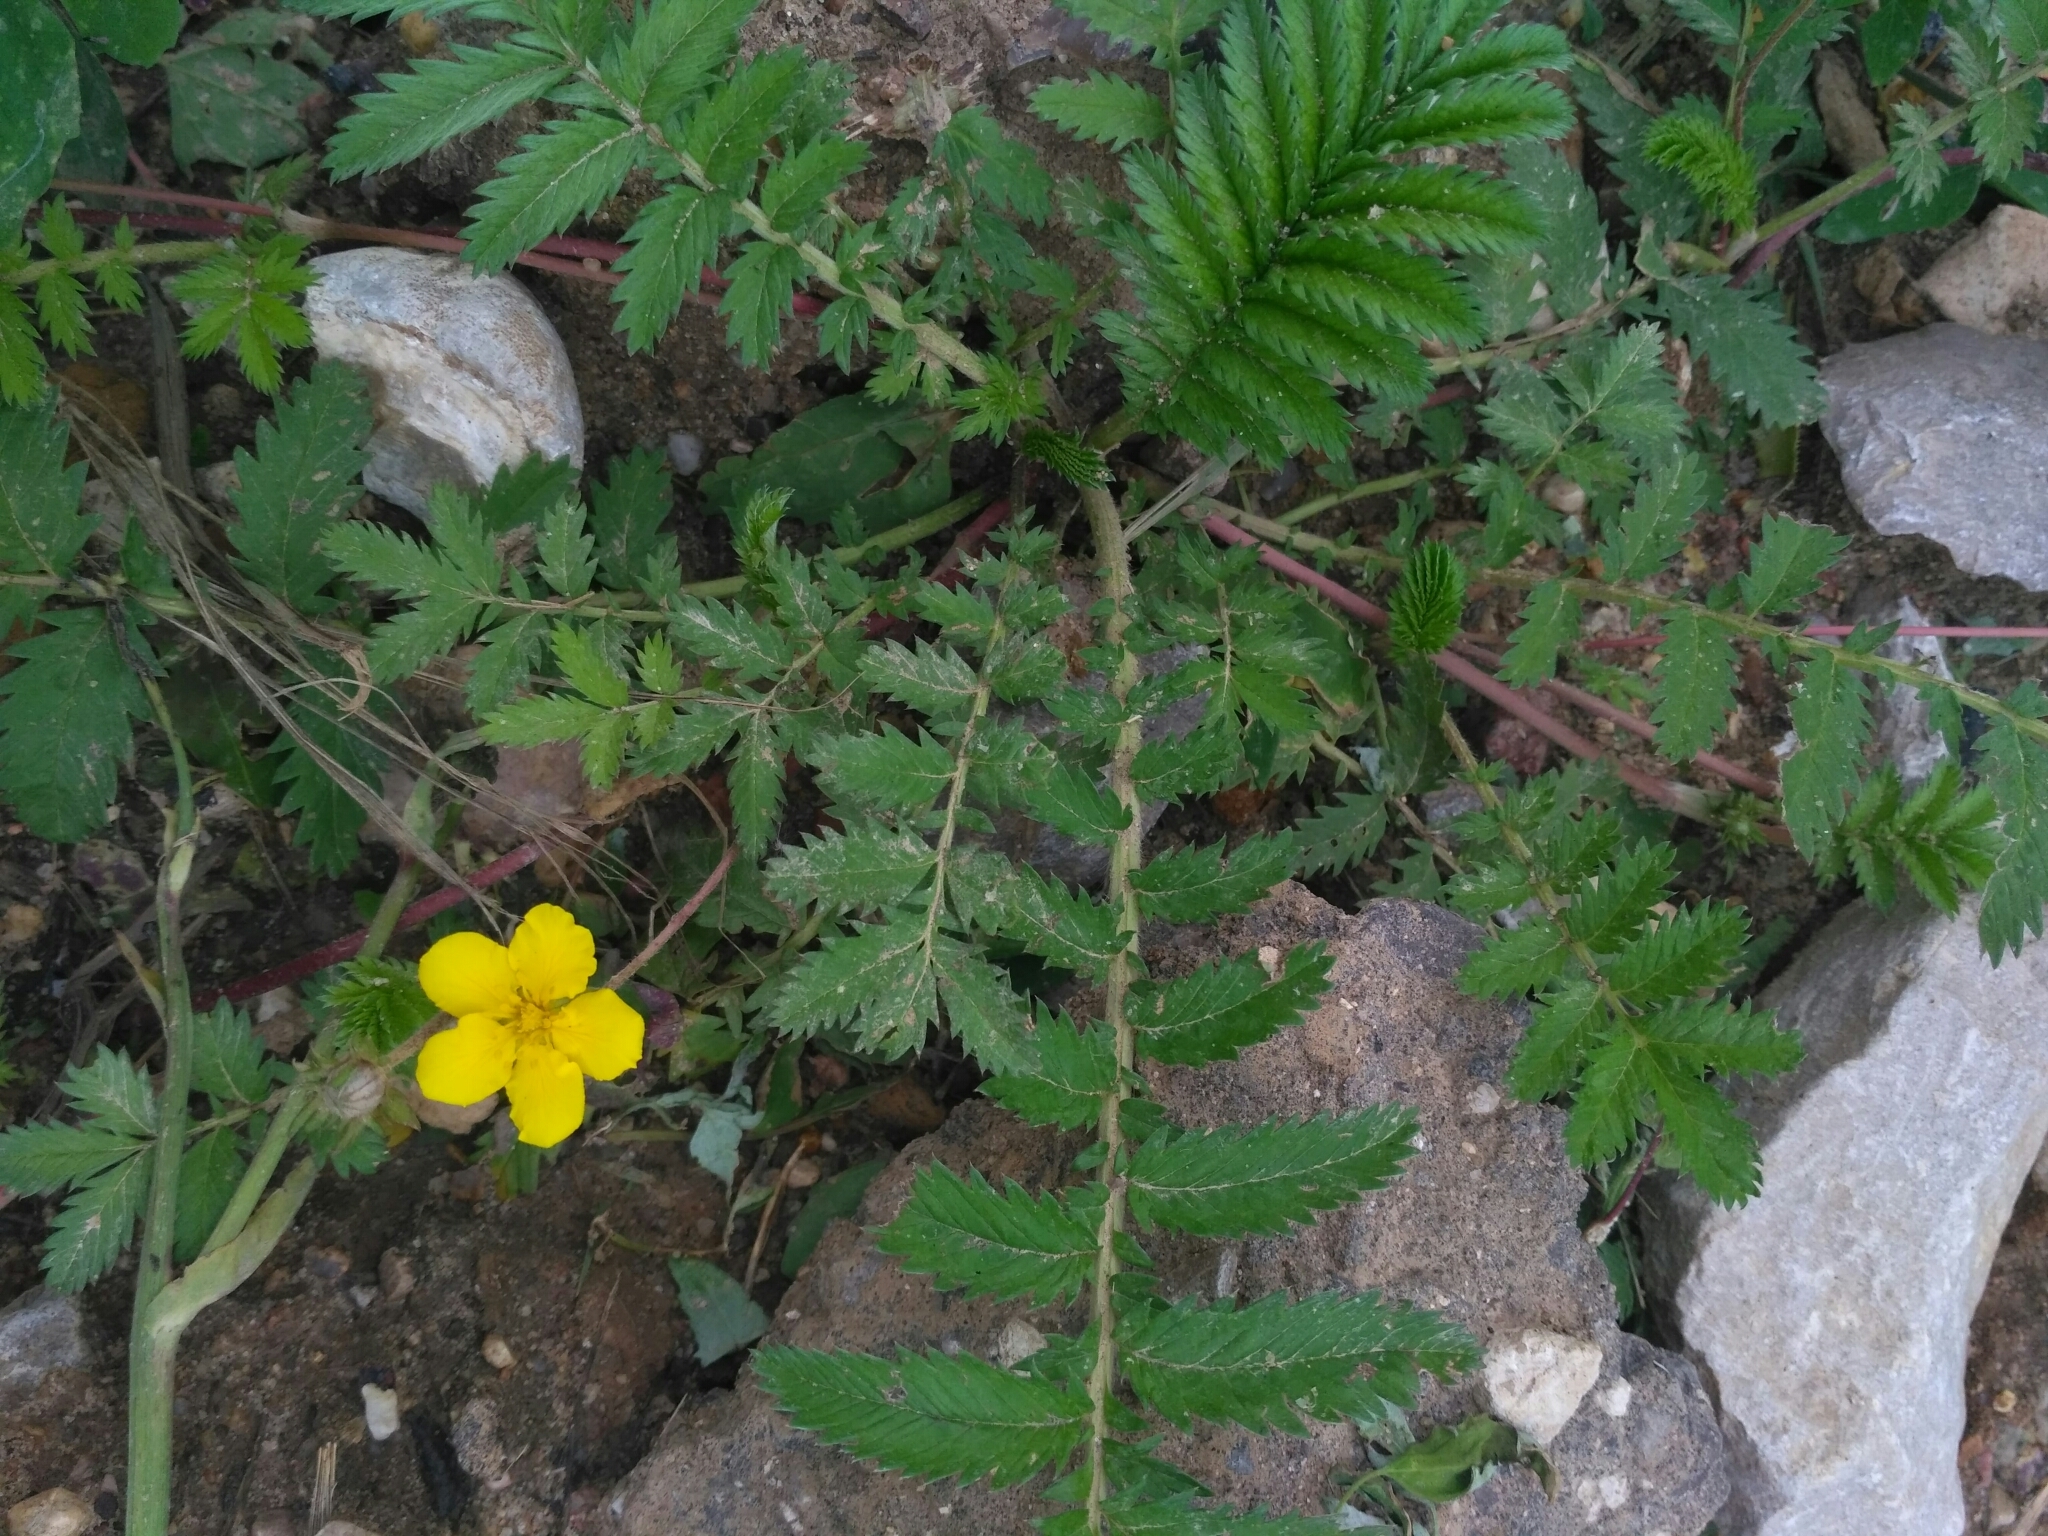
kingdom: Plantae
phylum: Tracheophyta
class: Magnoliopsida
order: Rosales
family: Rosaceae
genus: Argentina
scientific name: Argentina anserina
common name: Common silverweed
